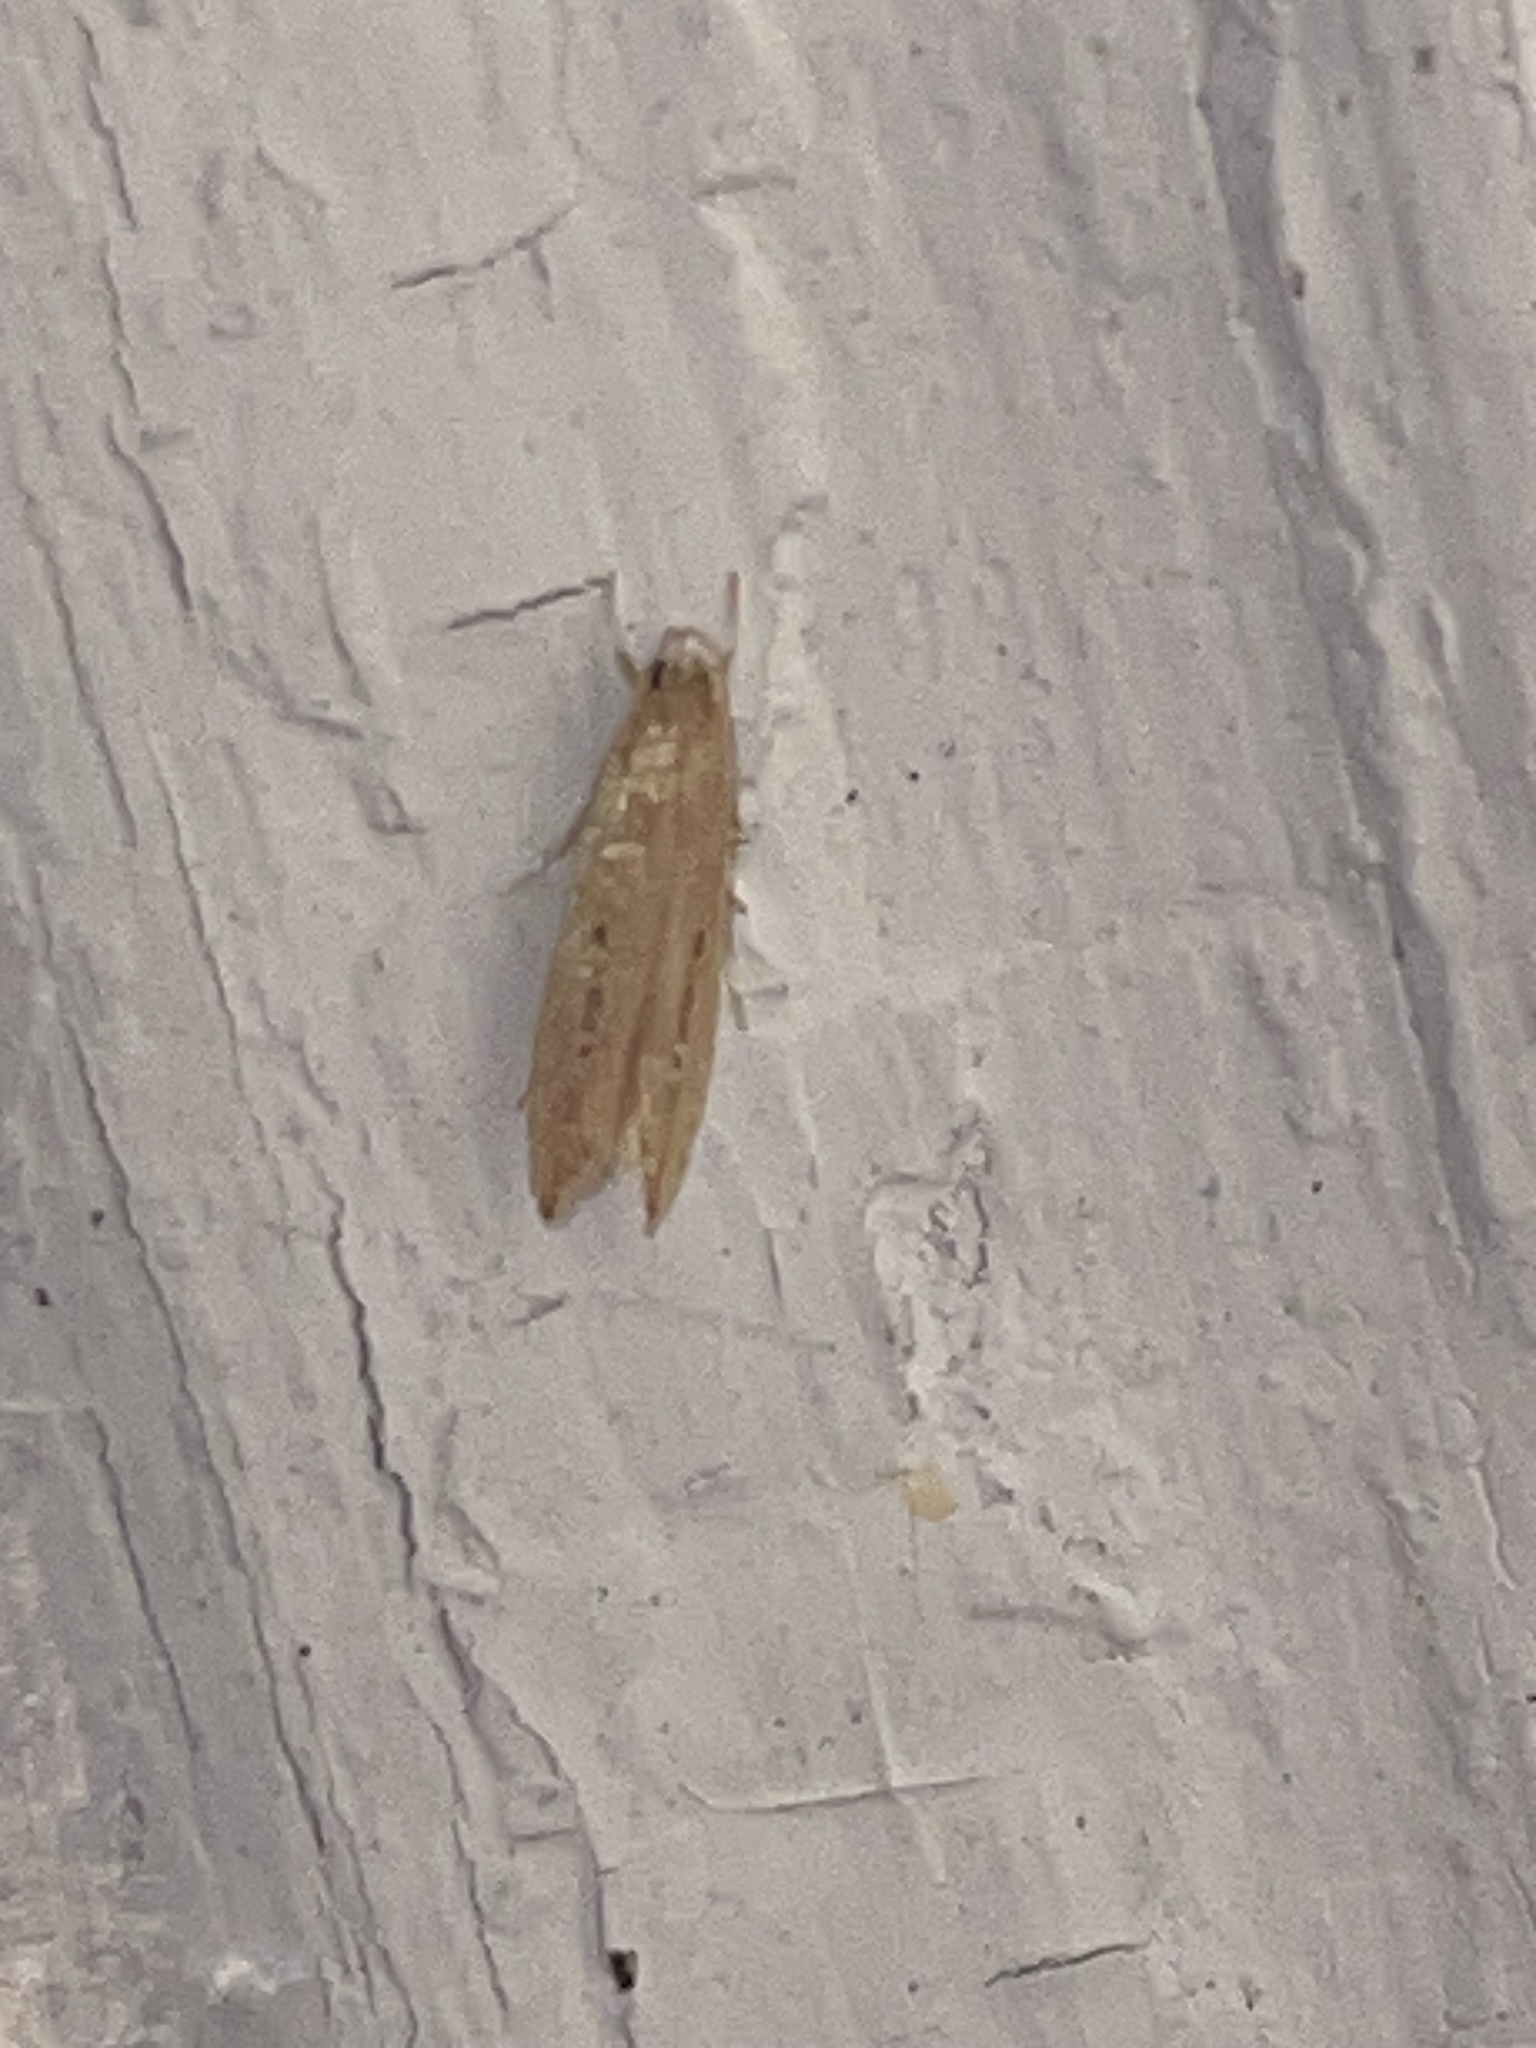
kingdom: Animalia
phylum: Arthropoda
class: Insecta
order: Lepidoptera
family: Cosmopterigidae
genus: Limnaecia
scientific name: Limnaecia phragmitella
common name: Bulrush cosmet
